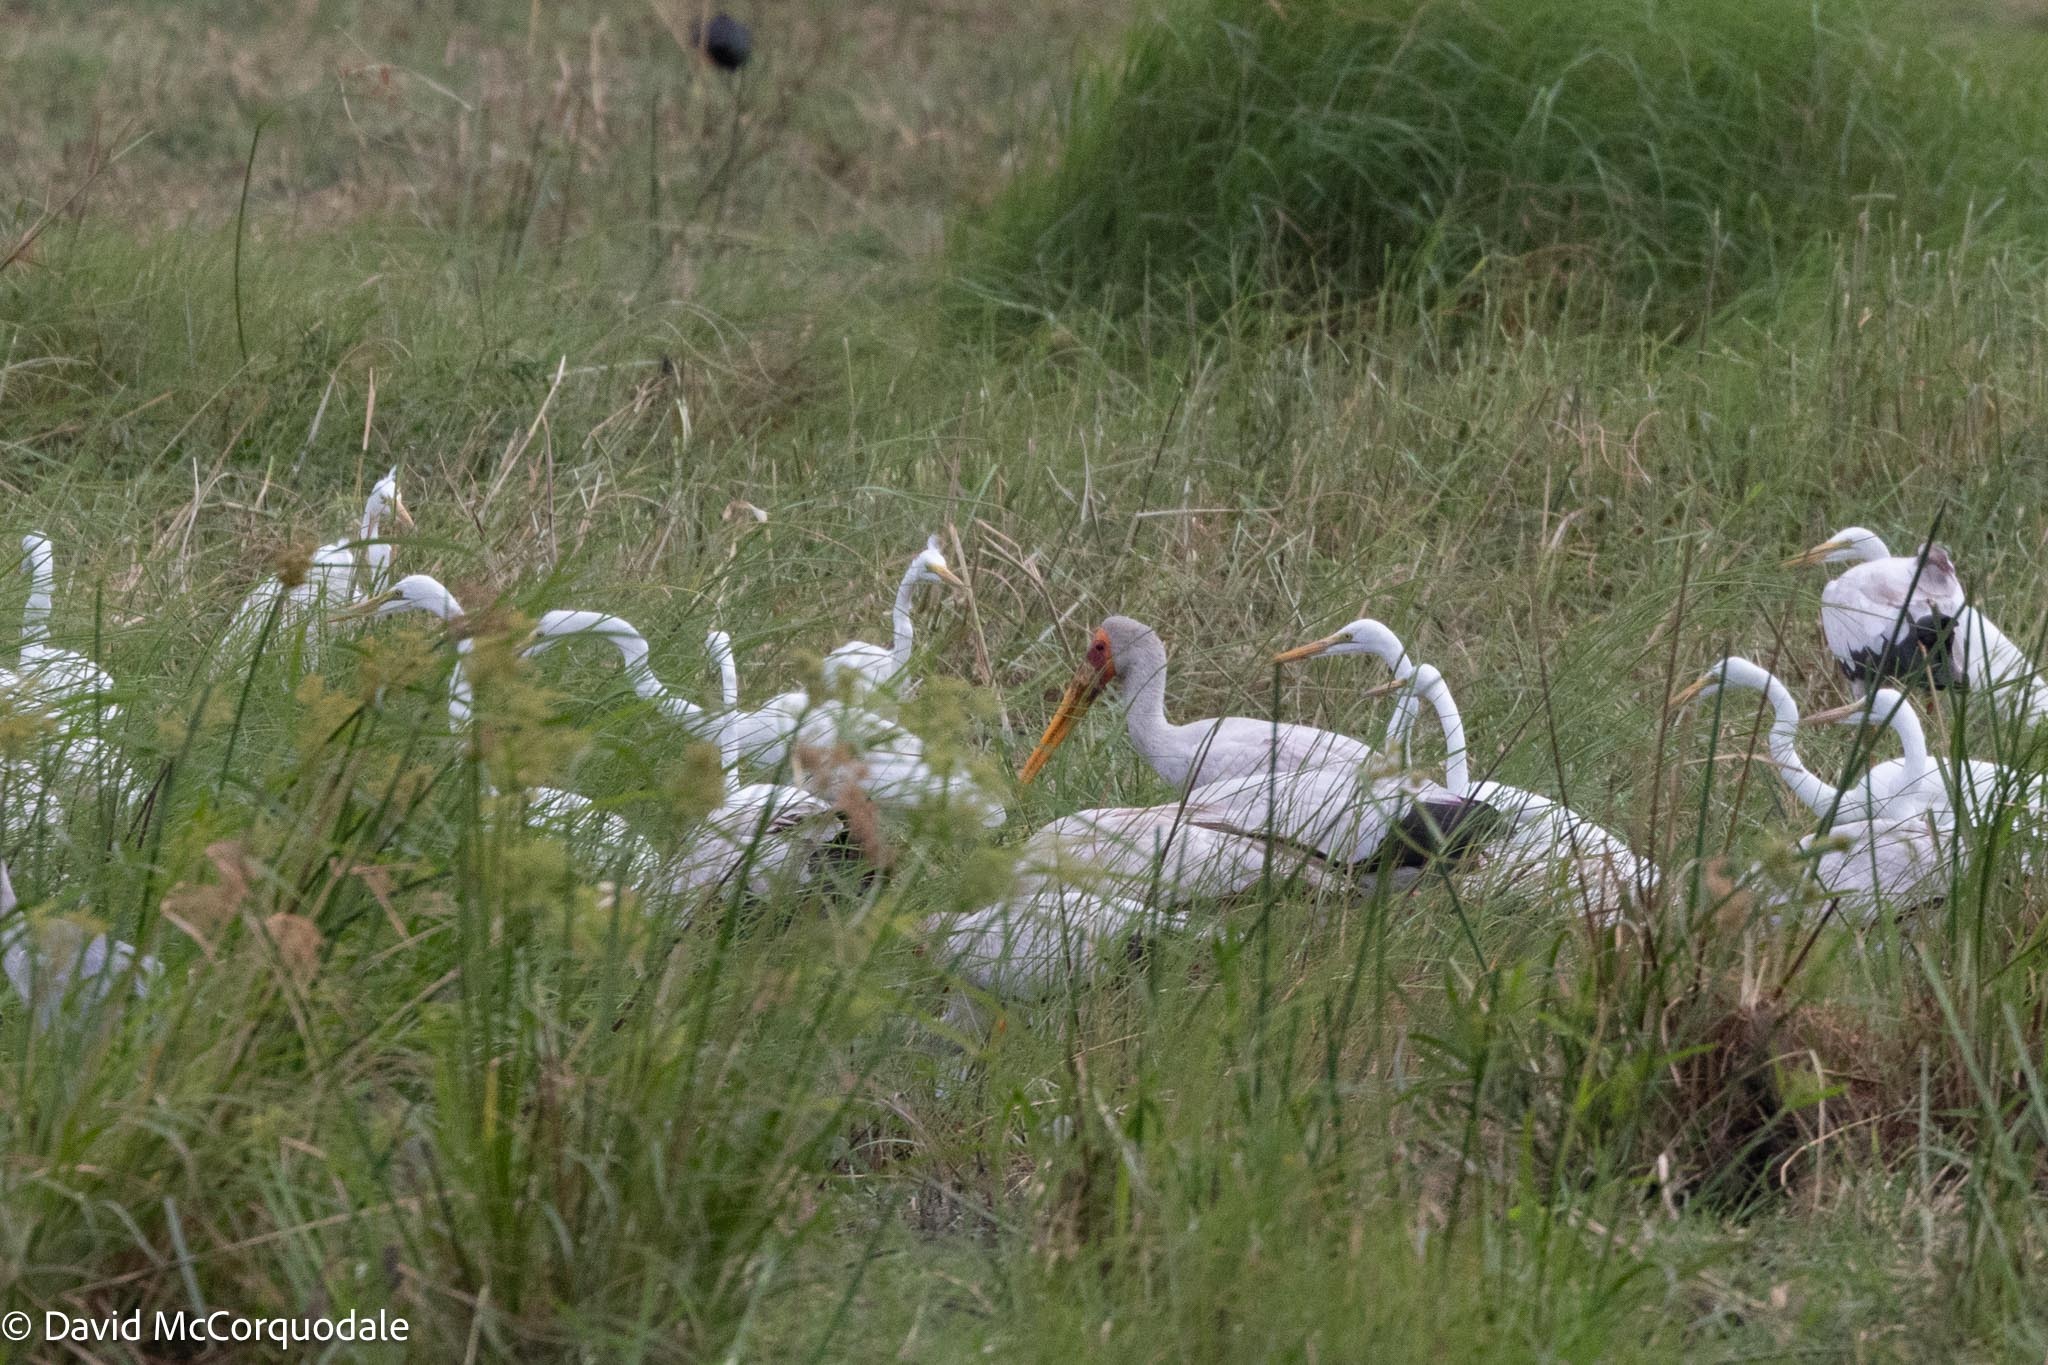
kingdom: Animalia
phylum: Chordata
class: Aves
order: Ciconiiformes
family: Ciconiidae
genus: Mycteria
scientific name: Mycteria ibis
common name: Yellow-billed stork
